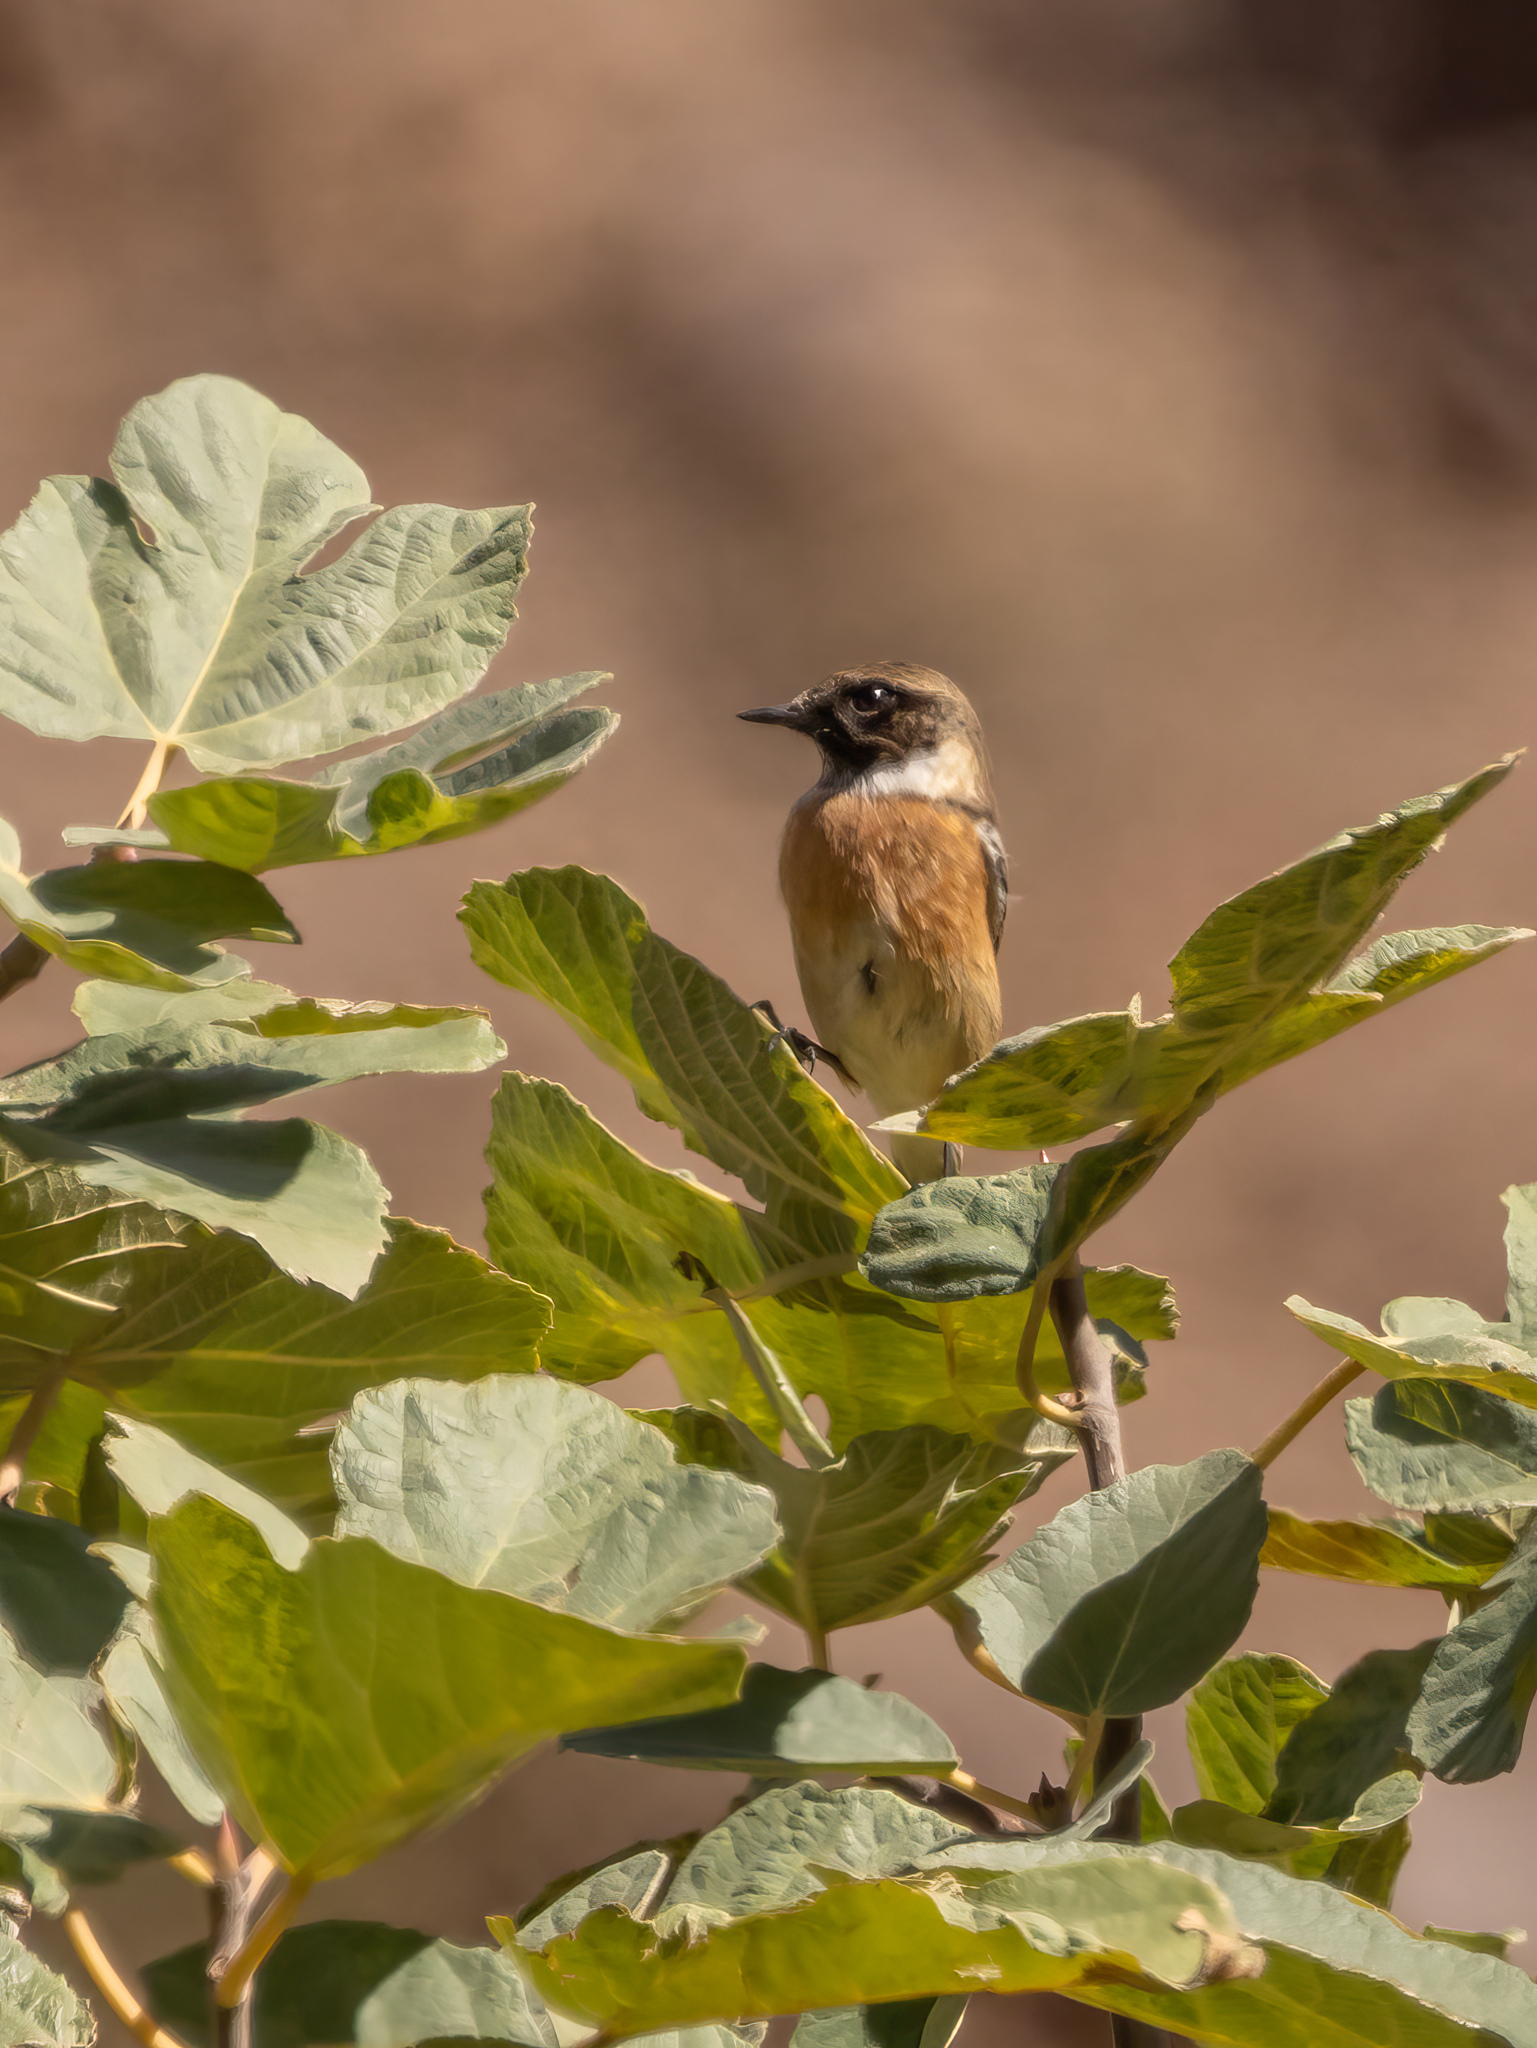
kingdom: Animalia
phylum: Chordata
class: Aves
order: Passeriformes
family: Muscicapidae
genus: Saxicola
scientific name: Saxicola rubicola
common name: European stonechat
